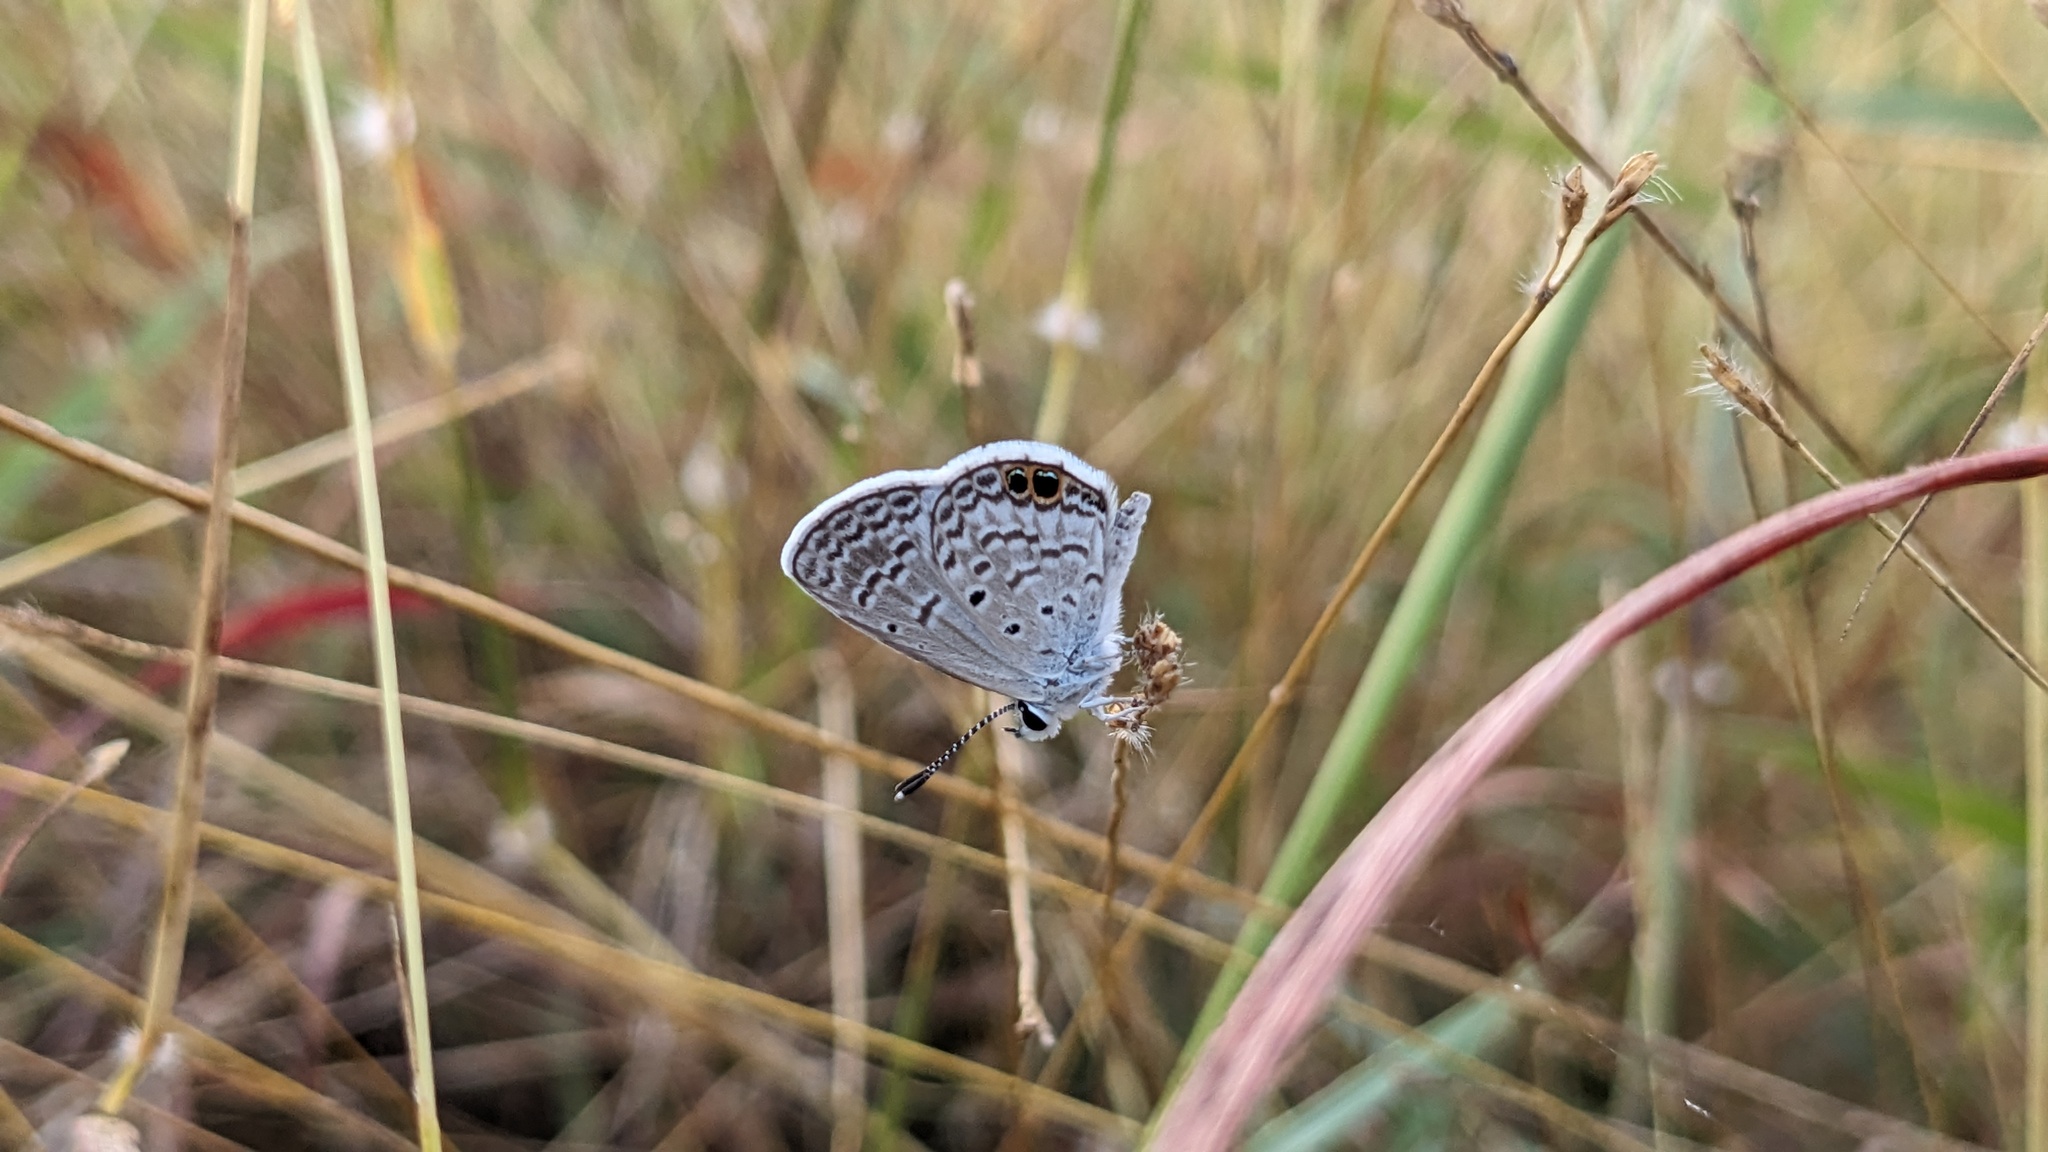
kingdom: Animalia
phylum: Arthropoda
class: Insecta
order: Lepidoptera
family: Lycaenidae
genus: Hemiargus
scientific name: Hemiargus ceraunus
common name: Ceraunus blue
